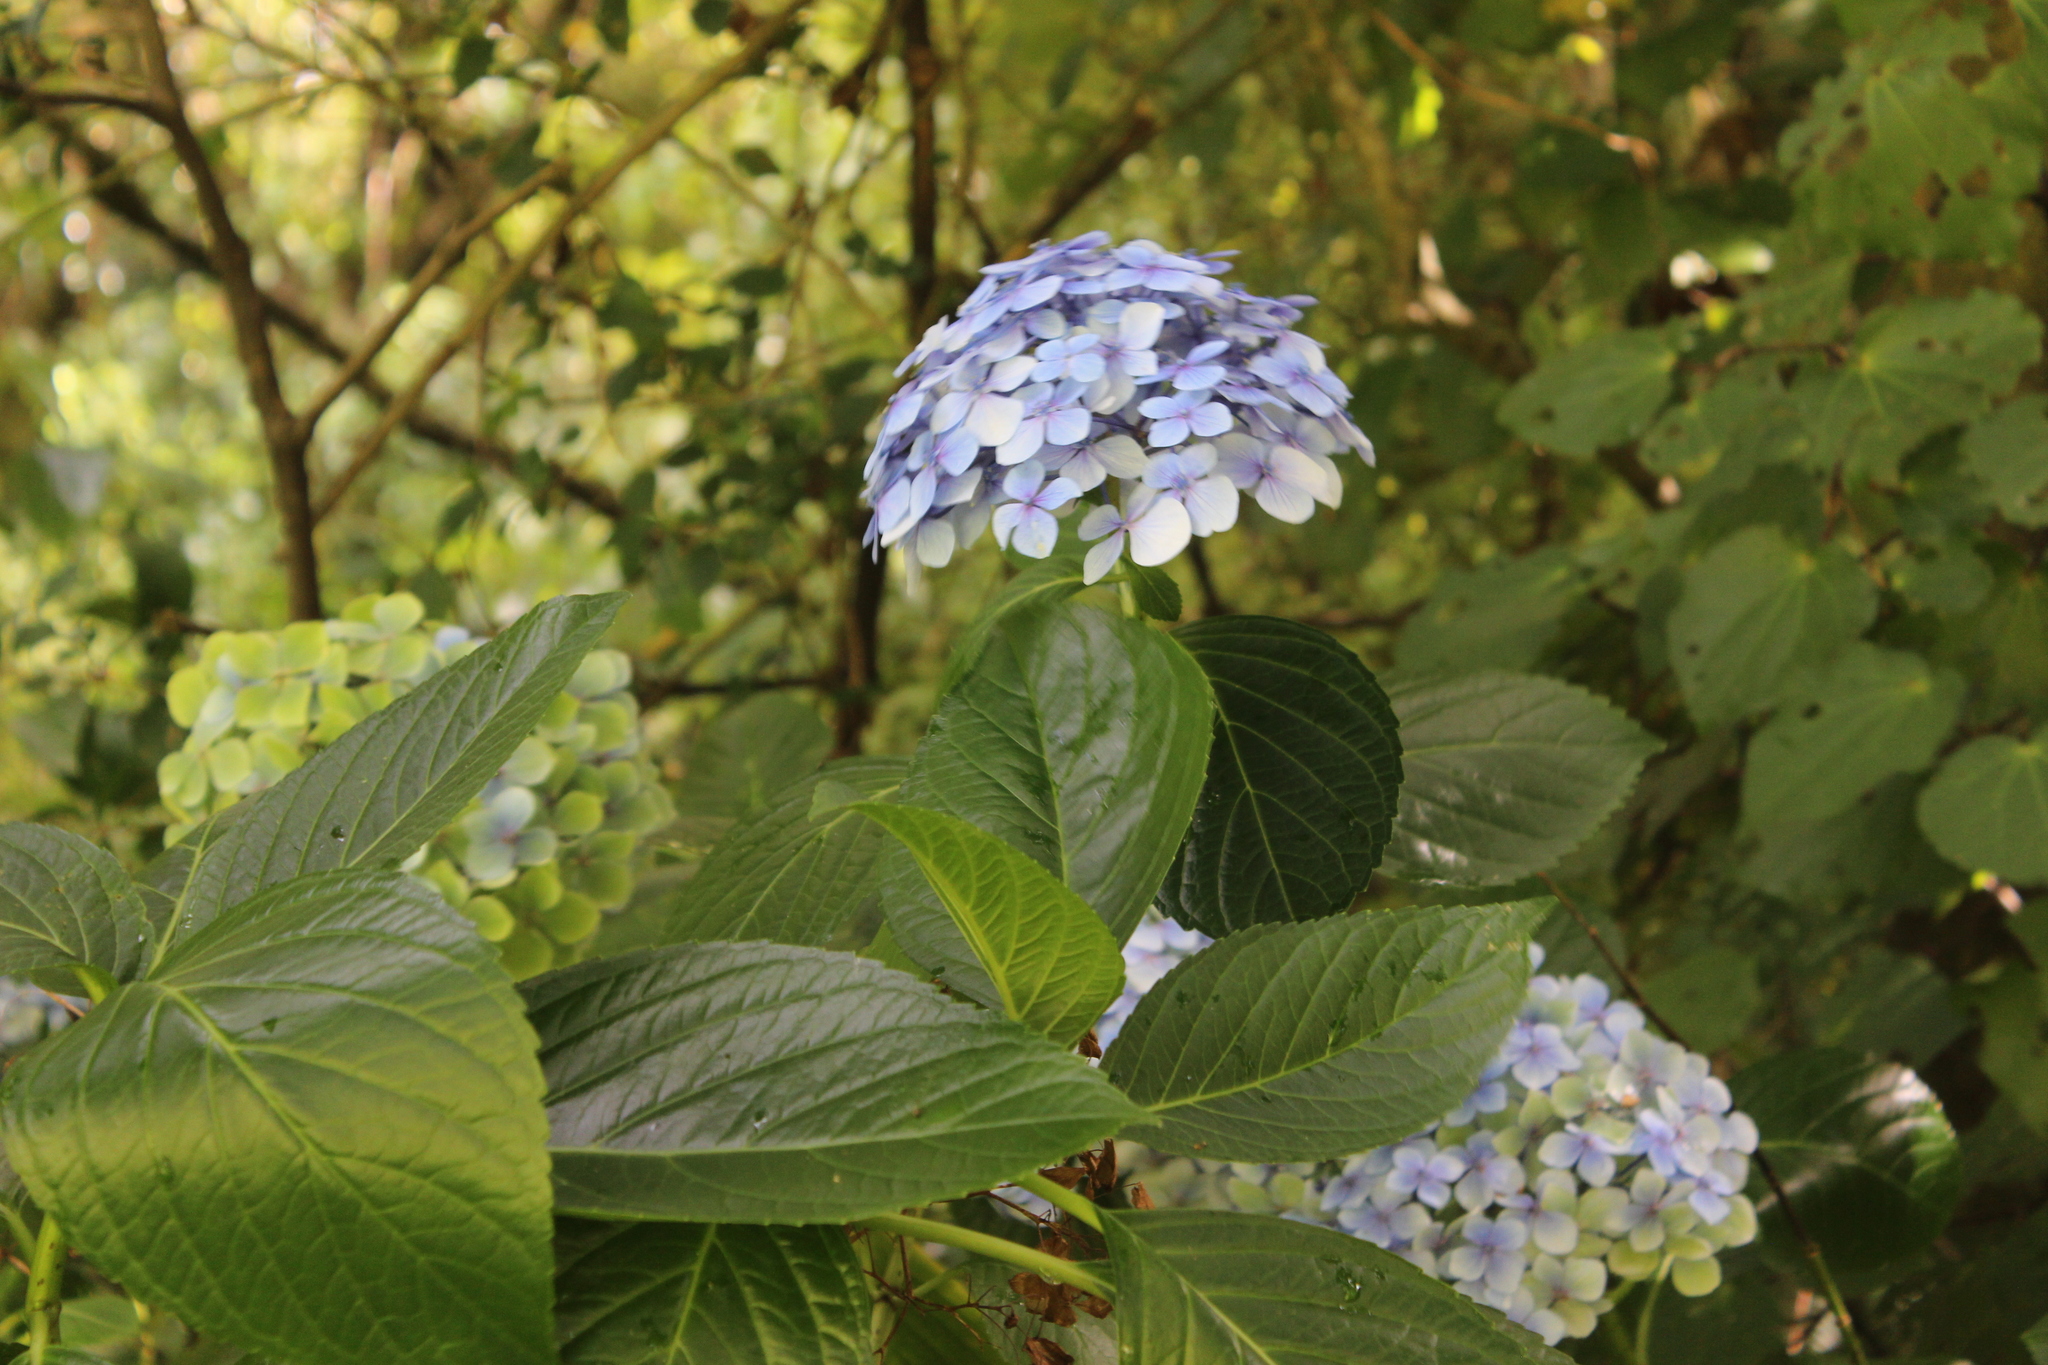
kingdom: Plantae
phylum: Tracheophyta
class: Magnoliopsida
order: Cornales
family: Hydrangeaceae
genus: Hydrangea
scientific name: Hydrangea macrophylla
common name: Hydrangea
